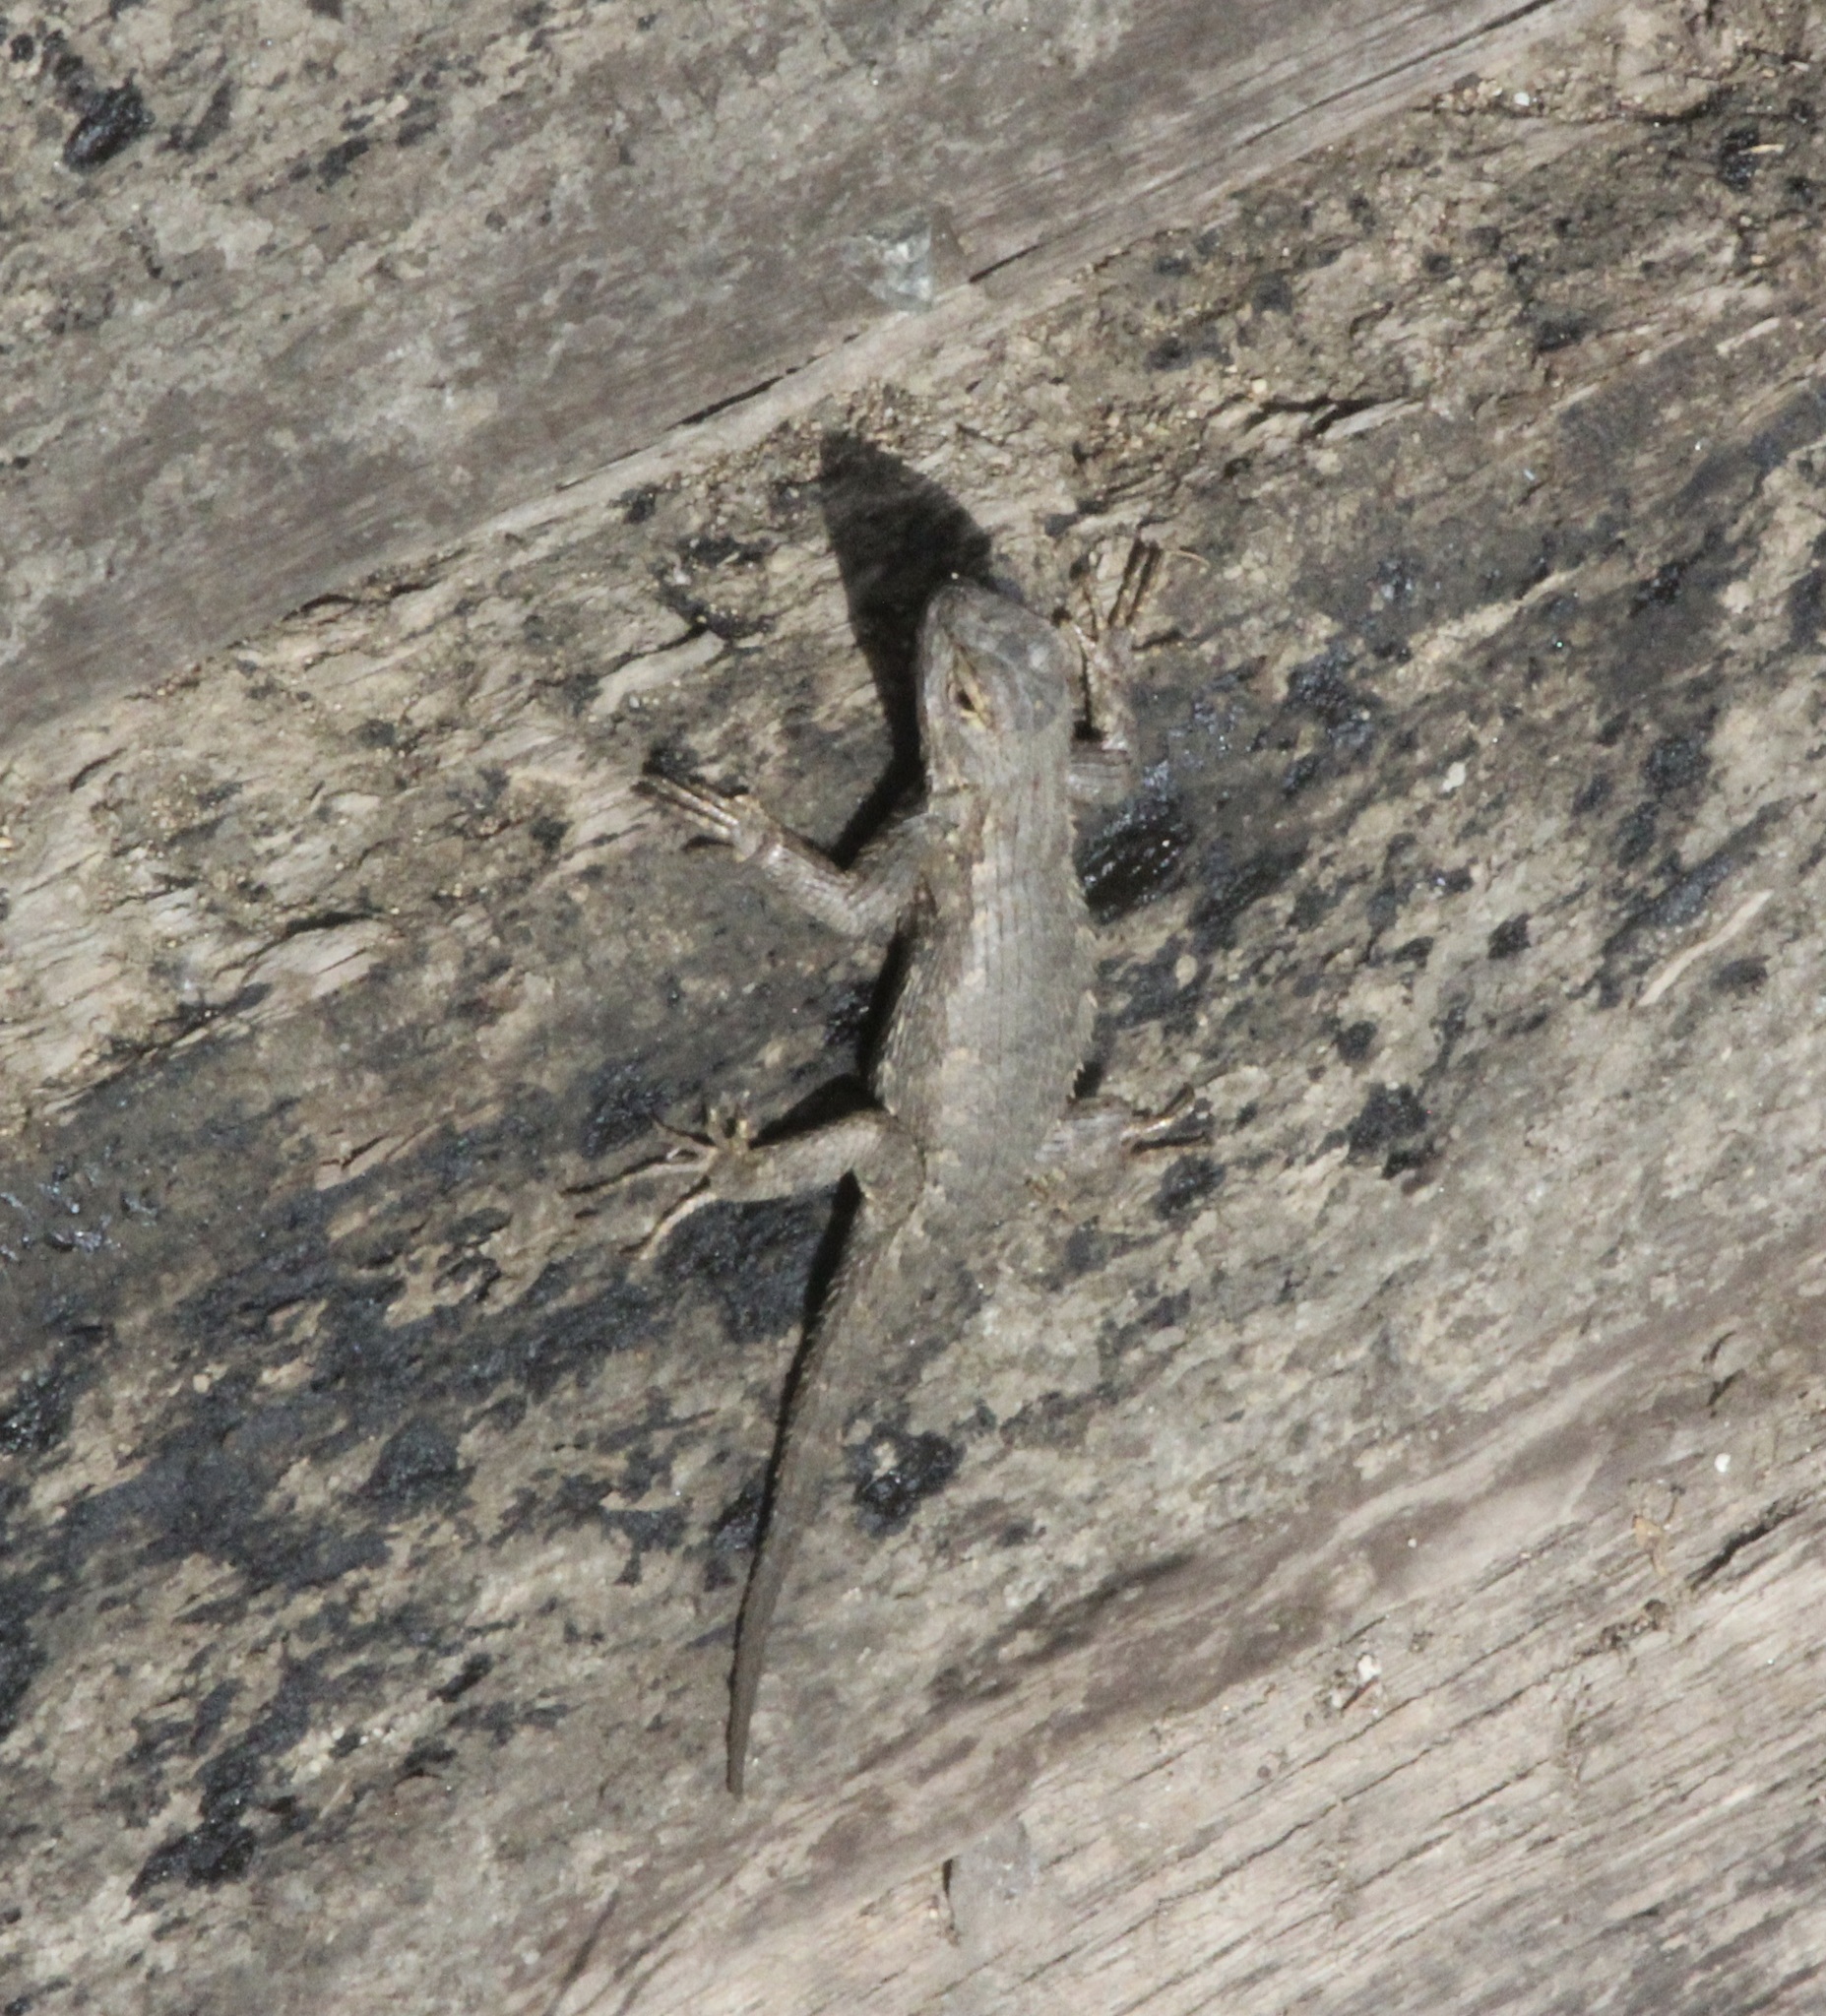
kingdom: Animalia
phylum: Chordata
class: Squamata
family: Phrynosomatidae
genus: Sceloporus
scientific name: Sceloporus occidentalis
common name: Western fence lizard
